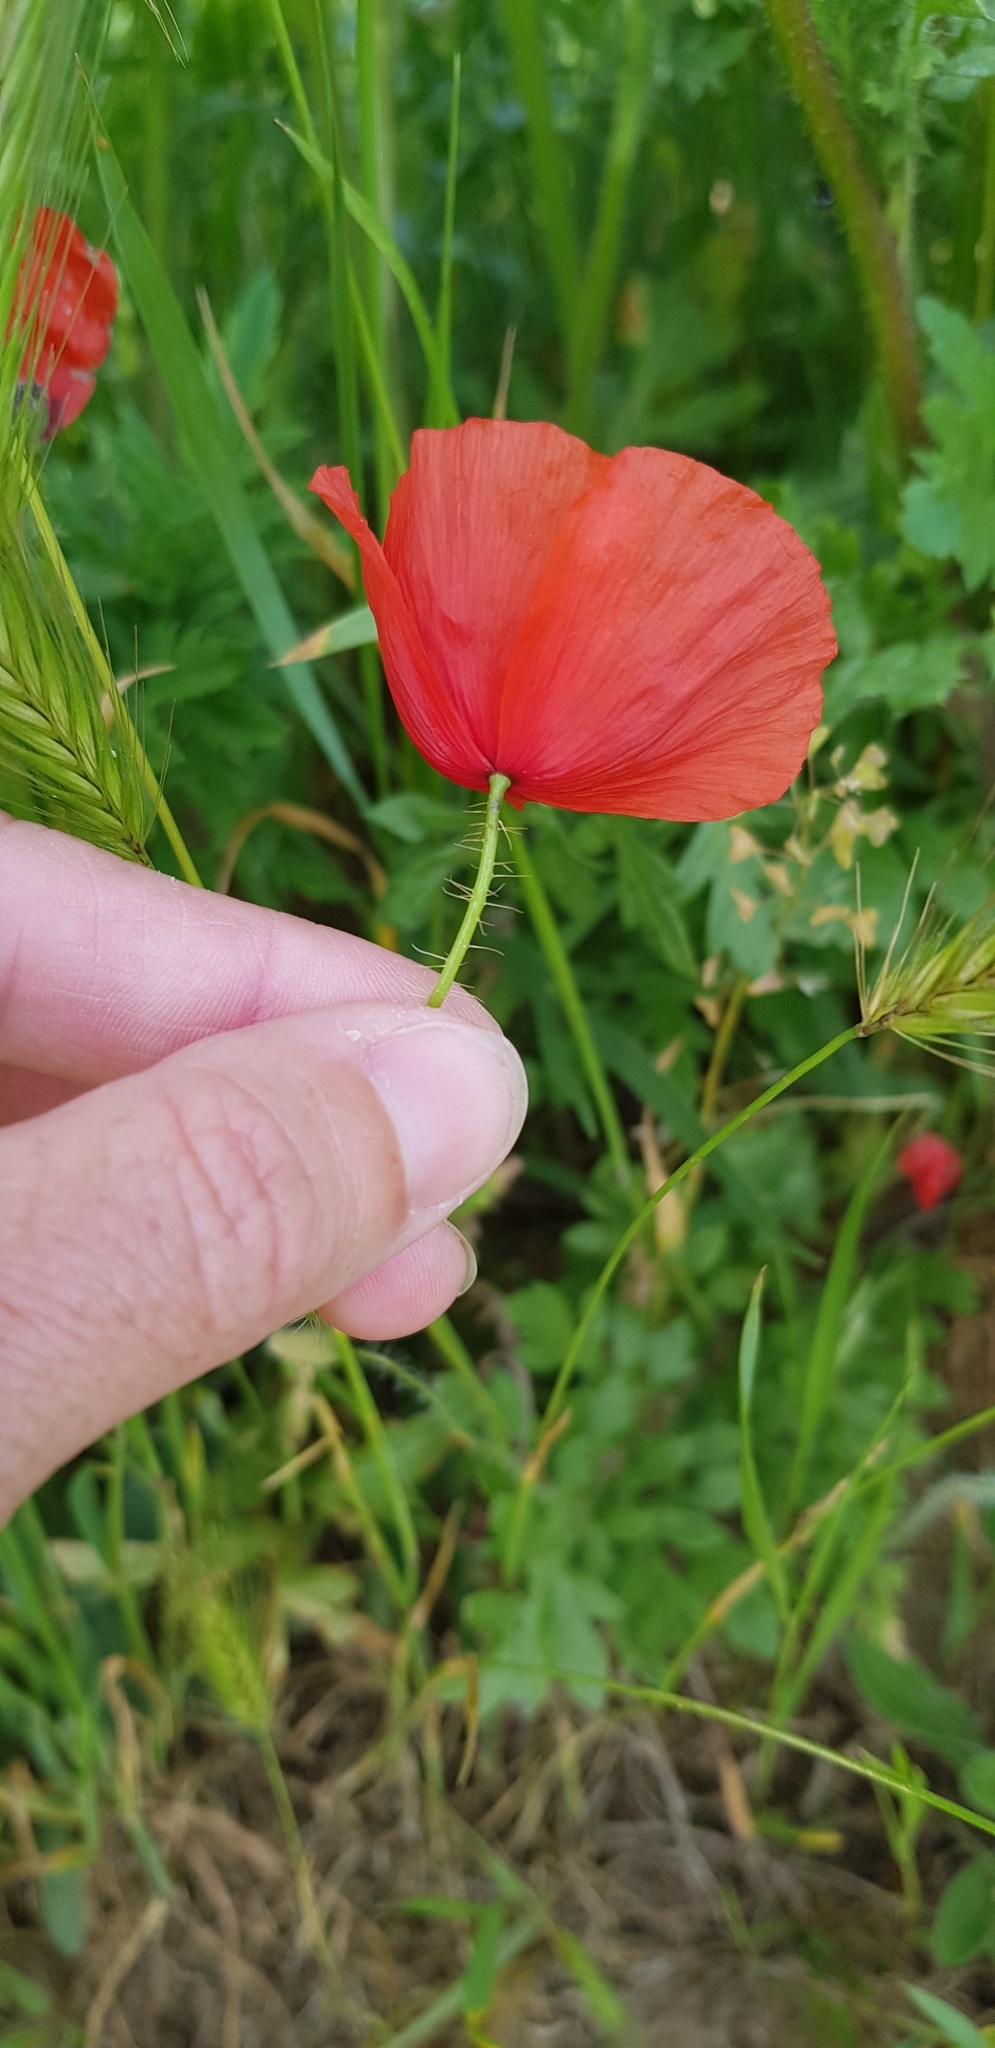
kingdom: Plantae
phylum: Tracheophyta
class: Magnoliopsida
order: Ranunculales
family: Papaveraceae
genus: Papaver
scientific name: Papaver rhoeas
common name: Corn poppy
